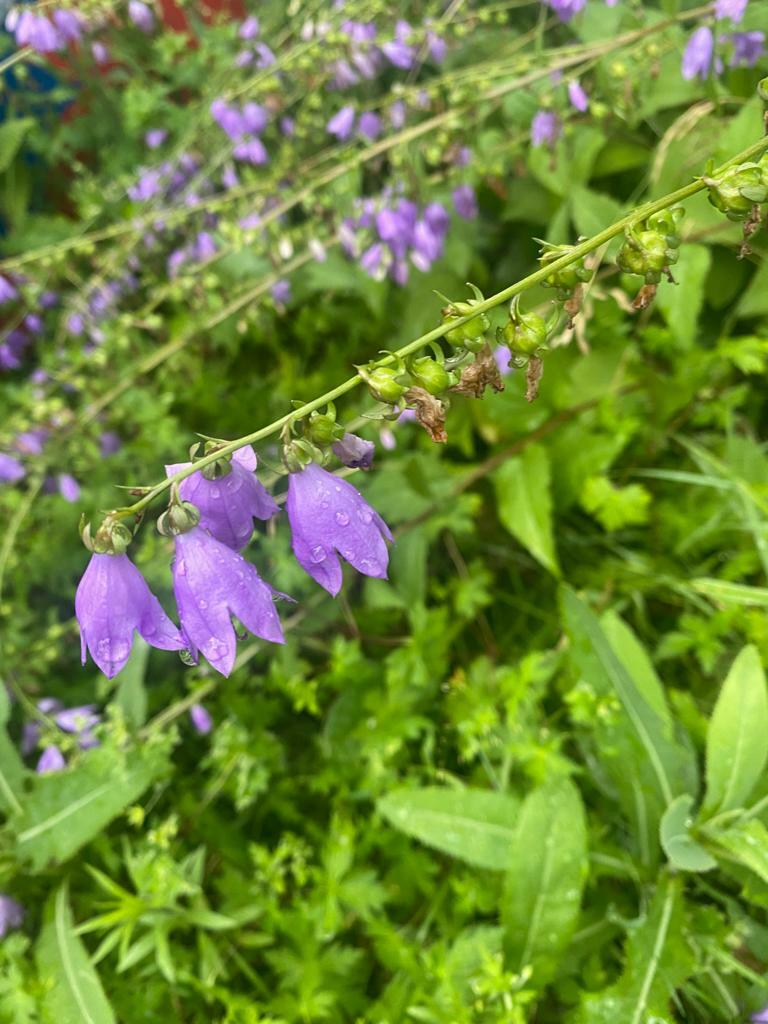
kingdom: Plantae
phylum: Tracheophyta
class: Magnoliopsida
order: Asterales
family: Campanulaceae
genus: Campanula
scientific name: Campanula rapunculoides
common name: Creeping bellflower
